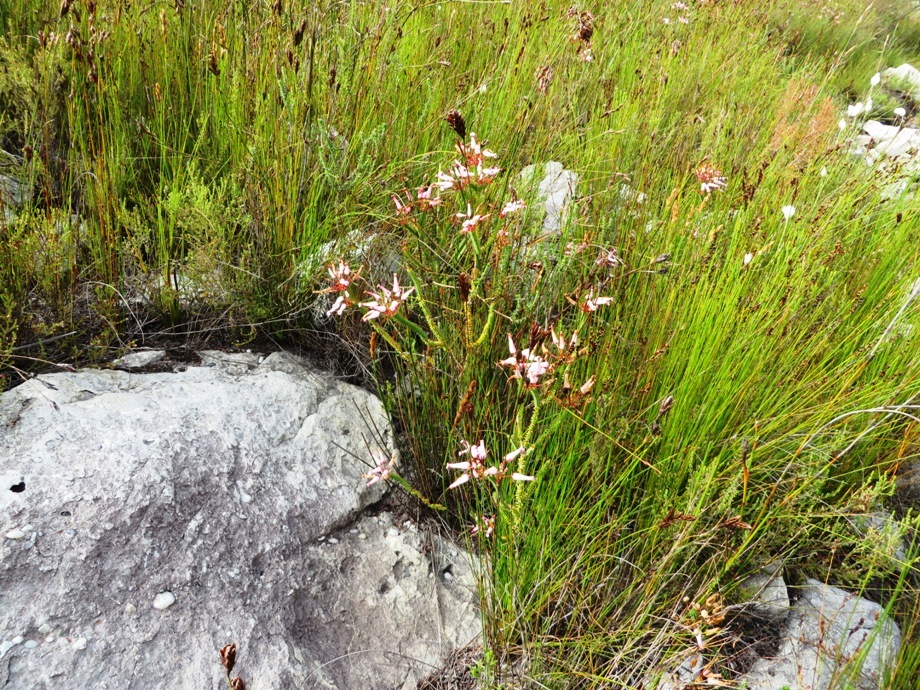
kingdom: Plantae
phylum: Tracheophyta
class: Magnoliopsida
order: Ericales
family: Ericaceae
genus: Erica
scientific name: Erica retorta
